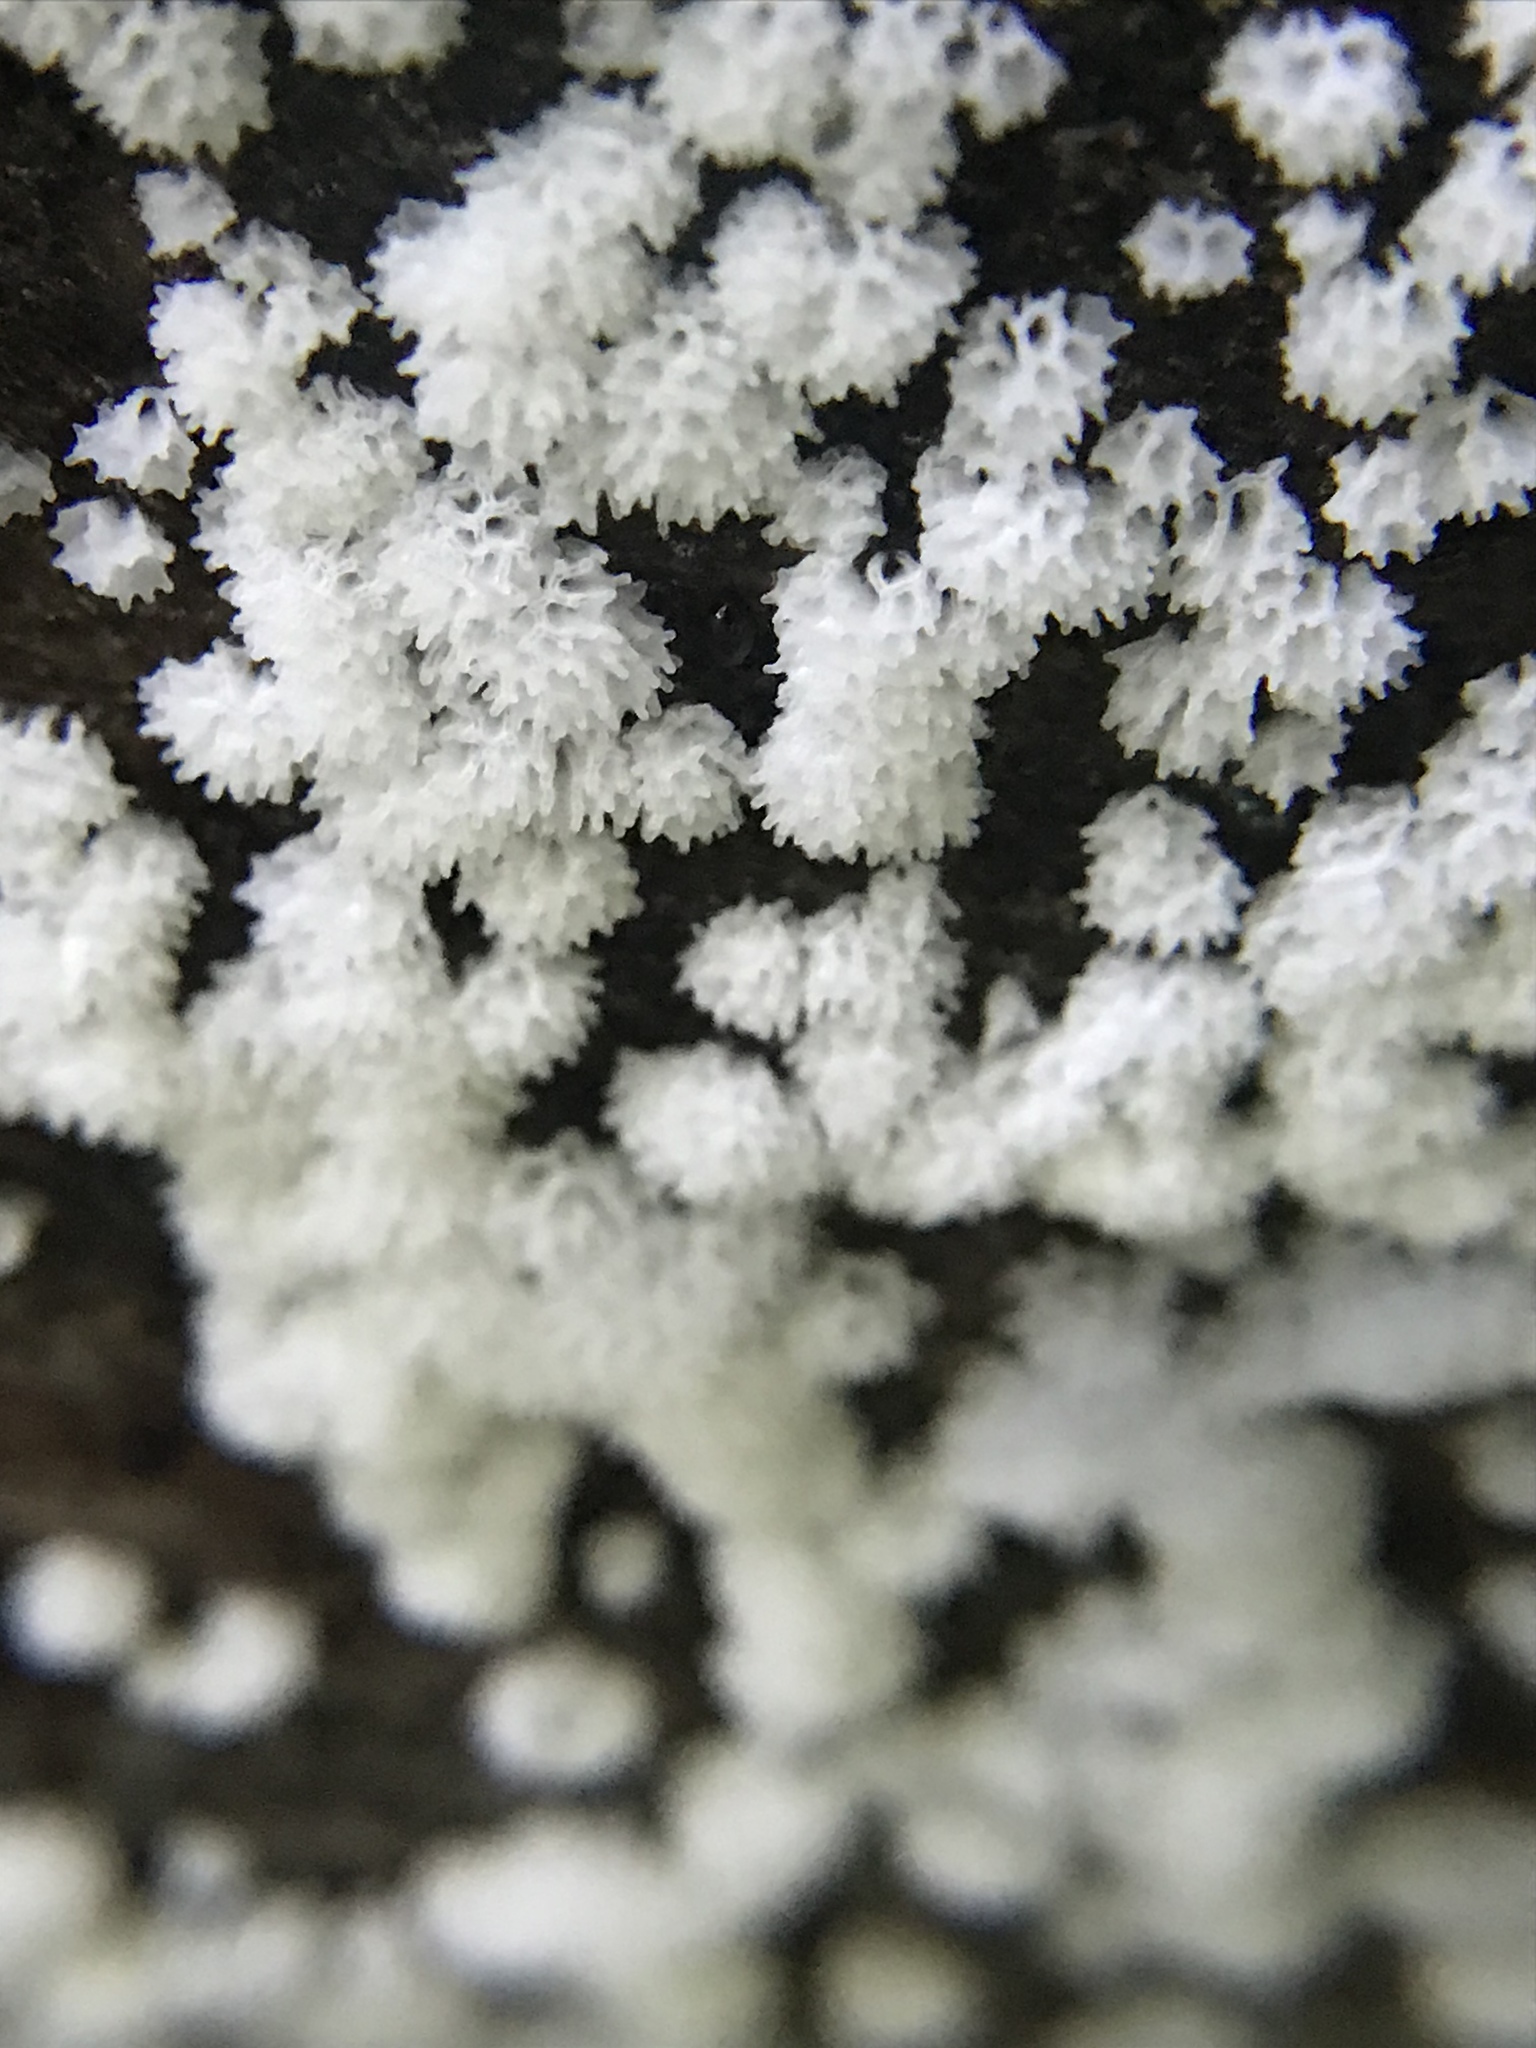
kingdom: Protozoa
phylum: Mycetozoa
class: Protosteliomycetes
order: Ceratiomyxales
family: Ceratiomyxaceae
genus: Ceratiomyxa
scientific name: Ceratiomyxa fruticulosa
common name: Honeycomb coral slime mold
